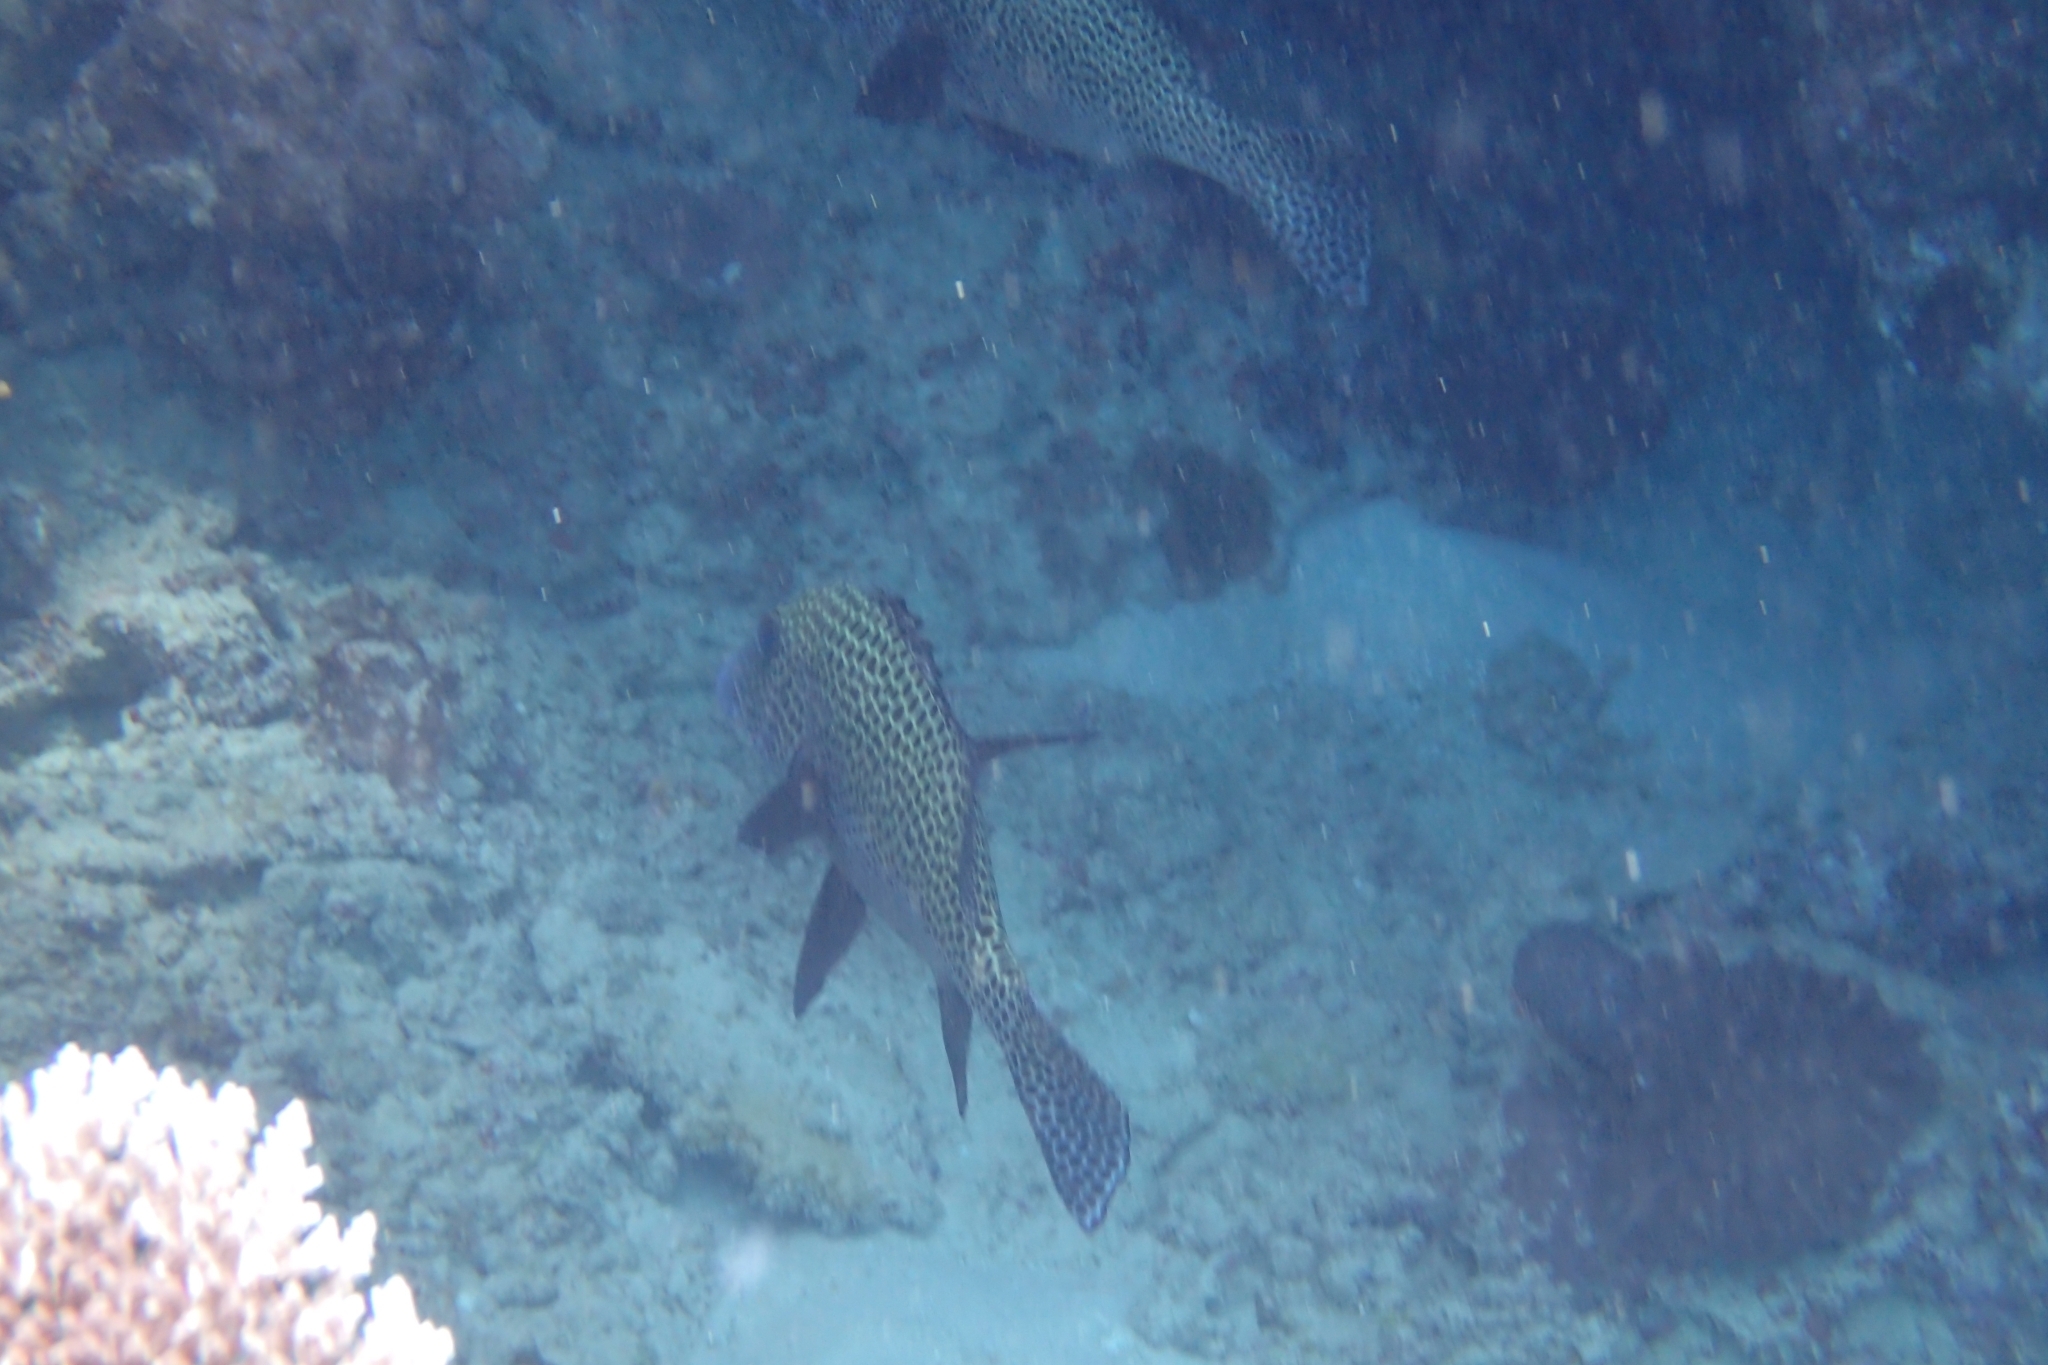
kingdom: Animalia
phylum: Chordata
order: Perciformes
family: Haemulidae
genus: Plectorhinchus
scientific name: Plectorhinchus chaetodonoides
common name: Harlequin sweetlips
